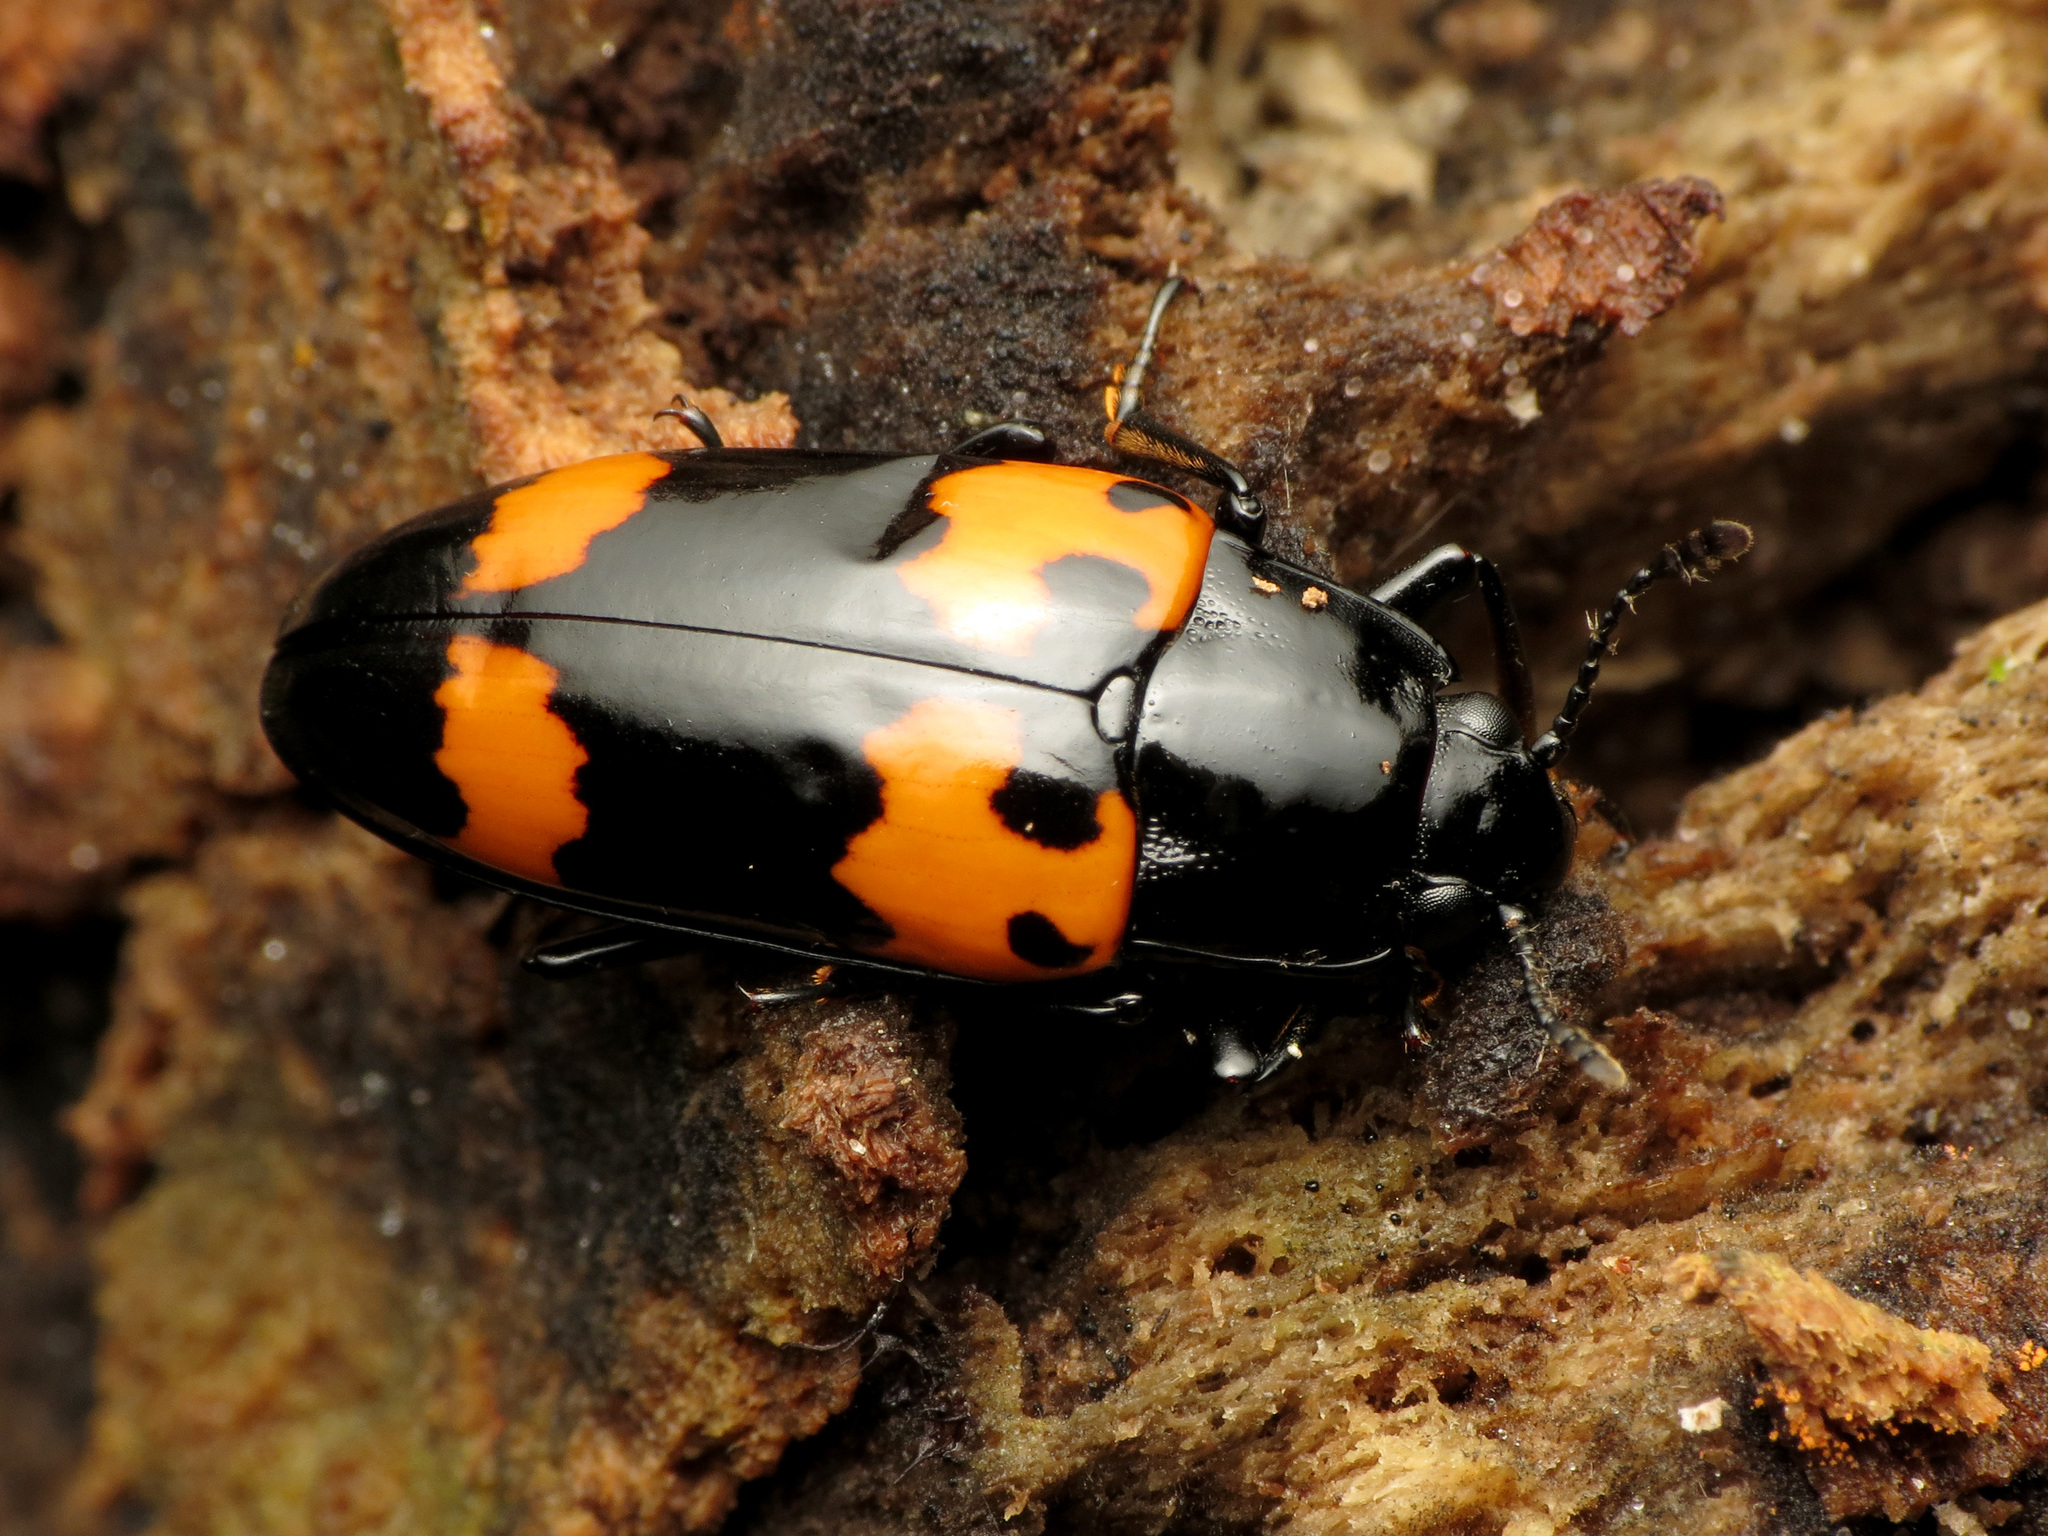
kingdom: Animalia
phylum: Arthropoda
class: Insecta
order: Coleoptera
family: Erotylidae
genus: Megalodacne
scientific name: Megalodacne heros
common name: Pleasing fungus beetle
